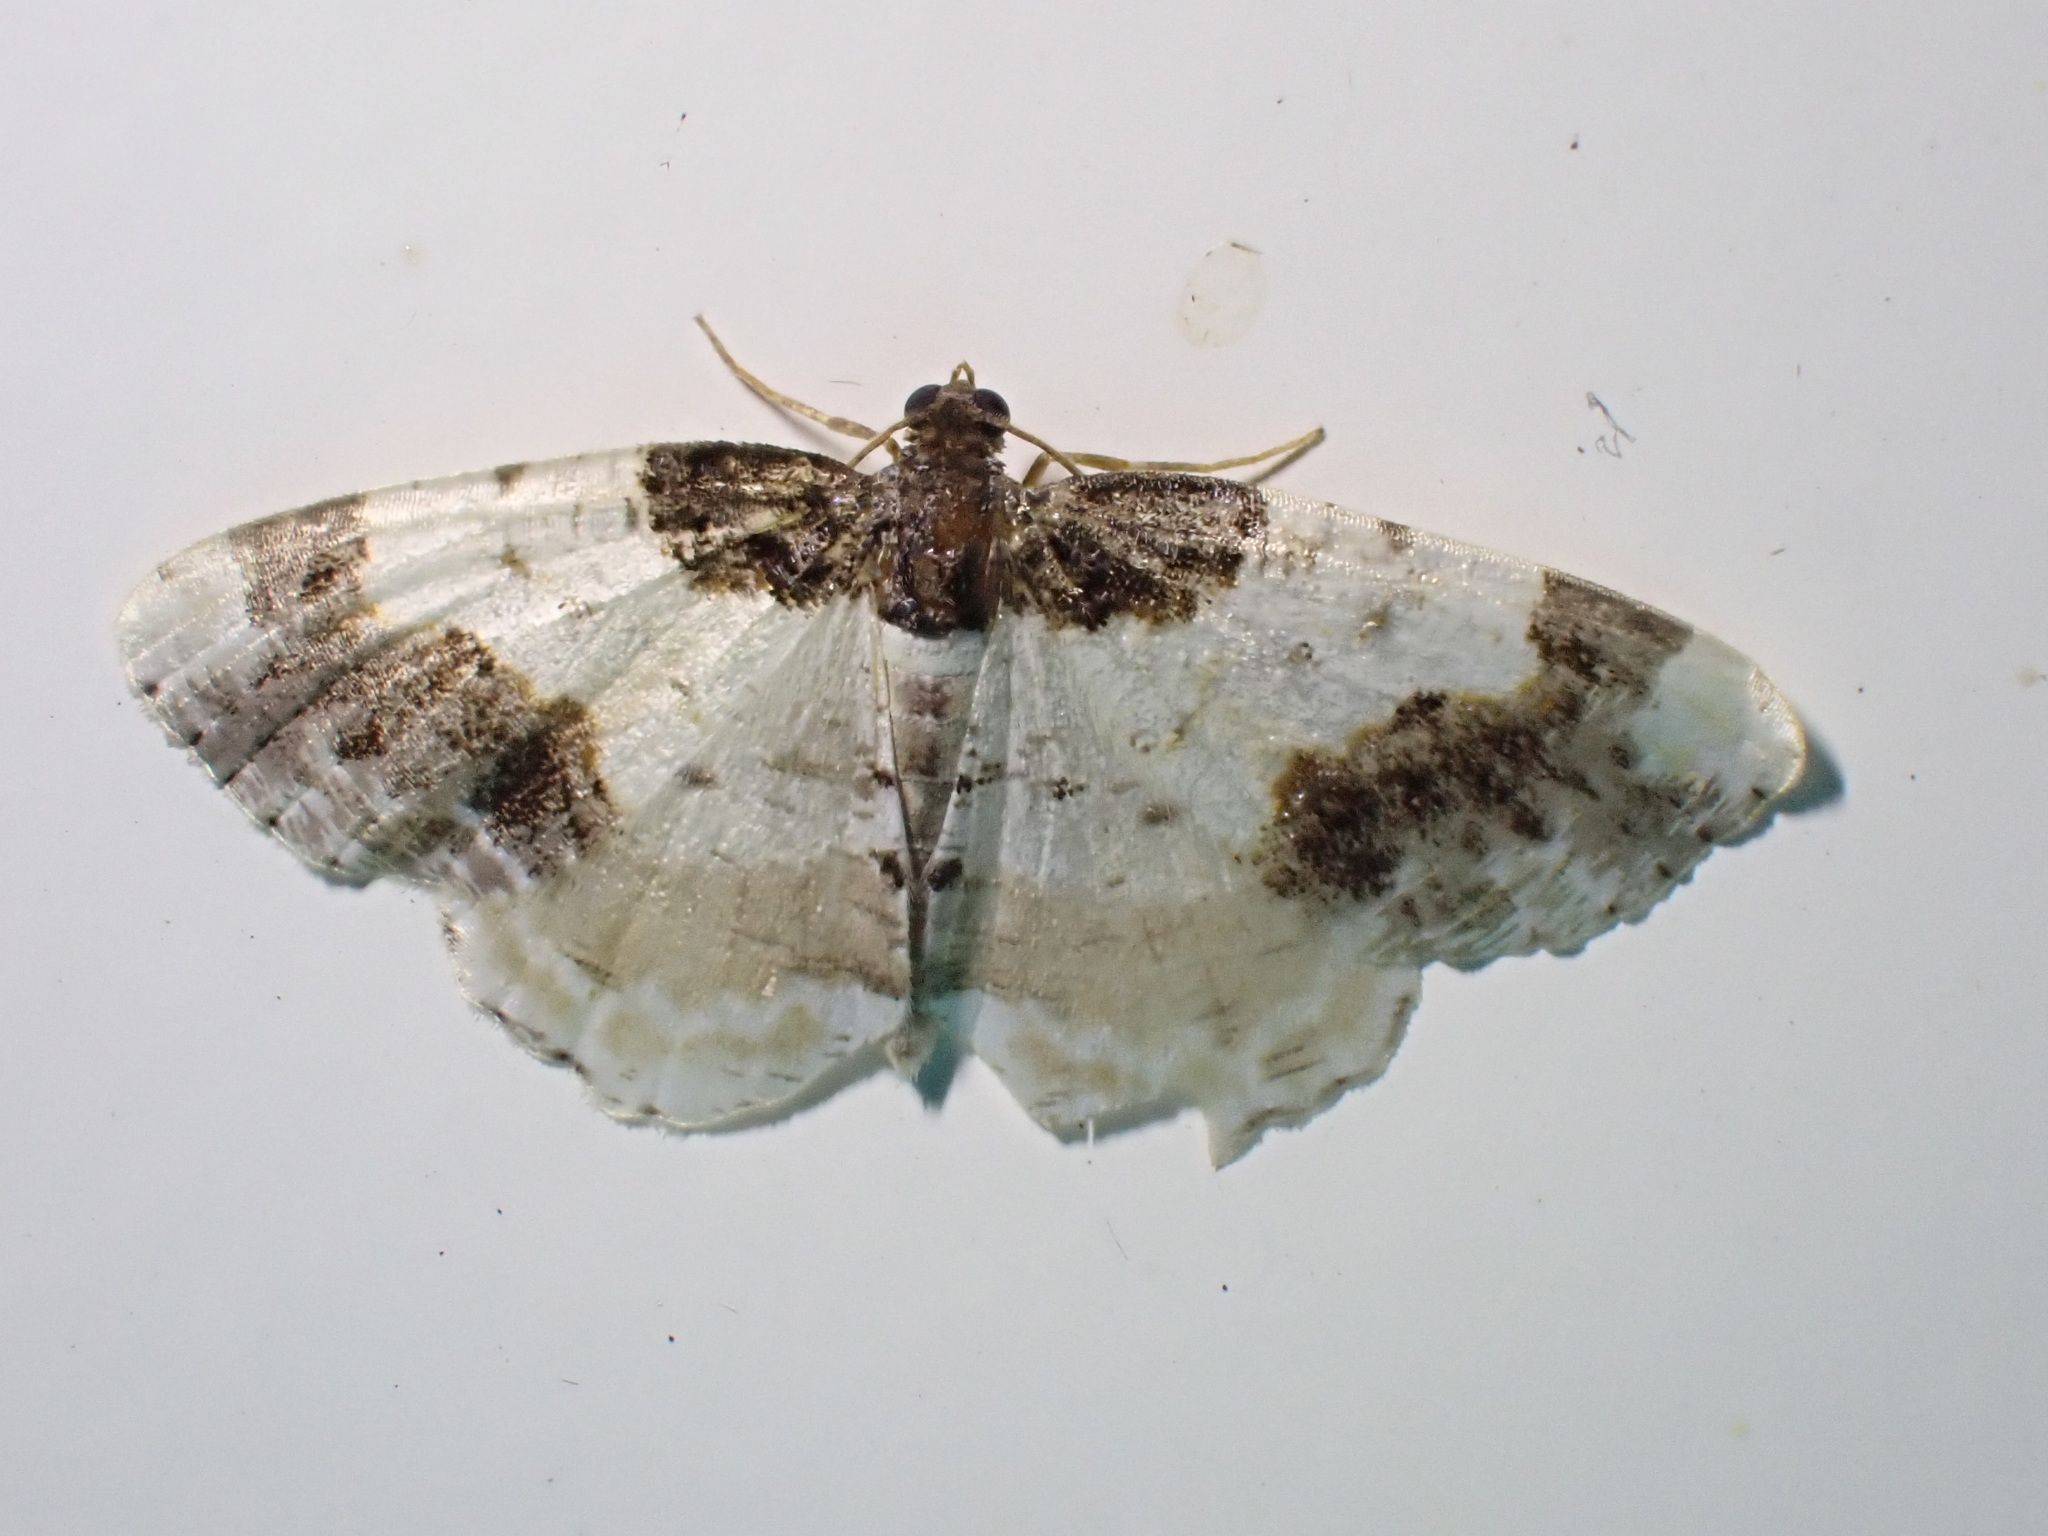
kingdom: Animalia
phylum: Arthropoda
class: Insecta
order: Lepidoptera
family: Geometridae
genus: Ligdia
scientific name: Ligdia adustata
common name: Scorched carpet
